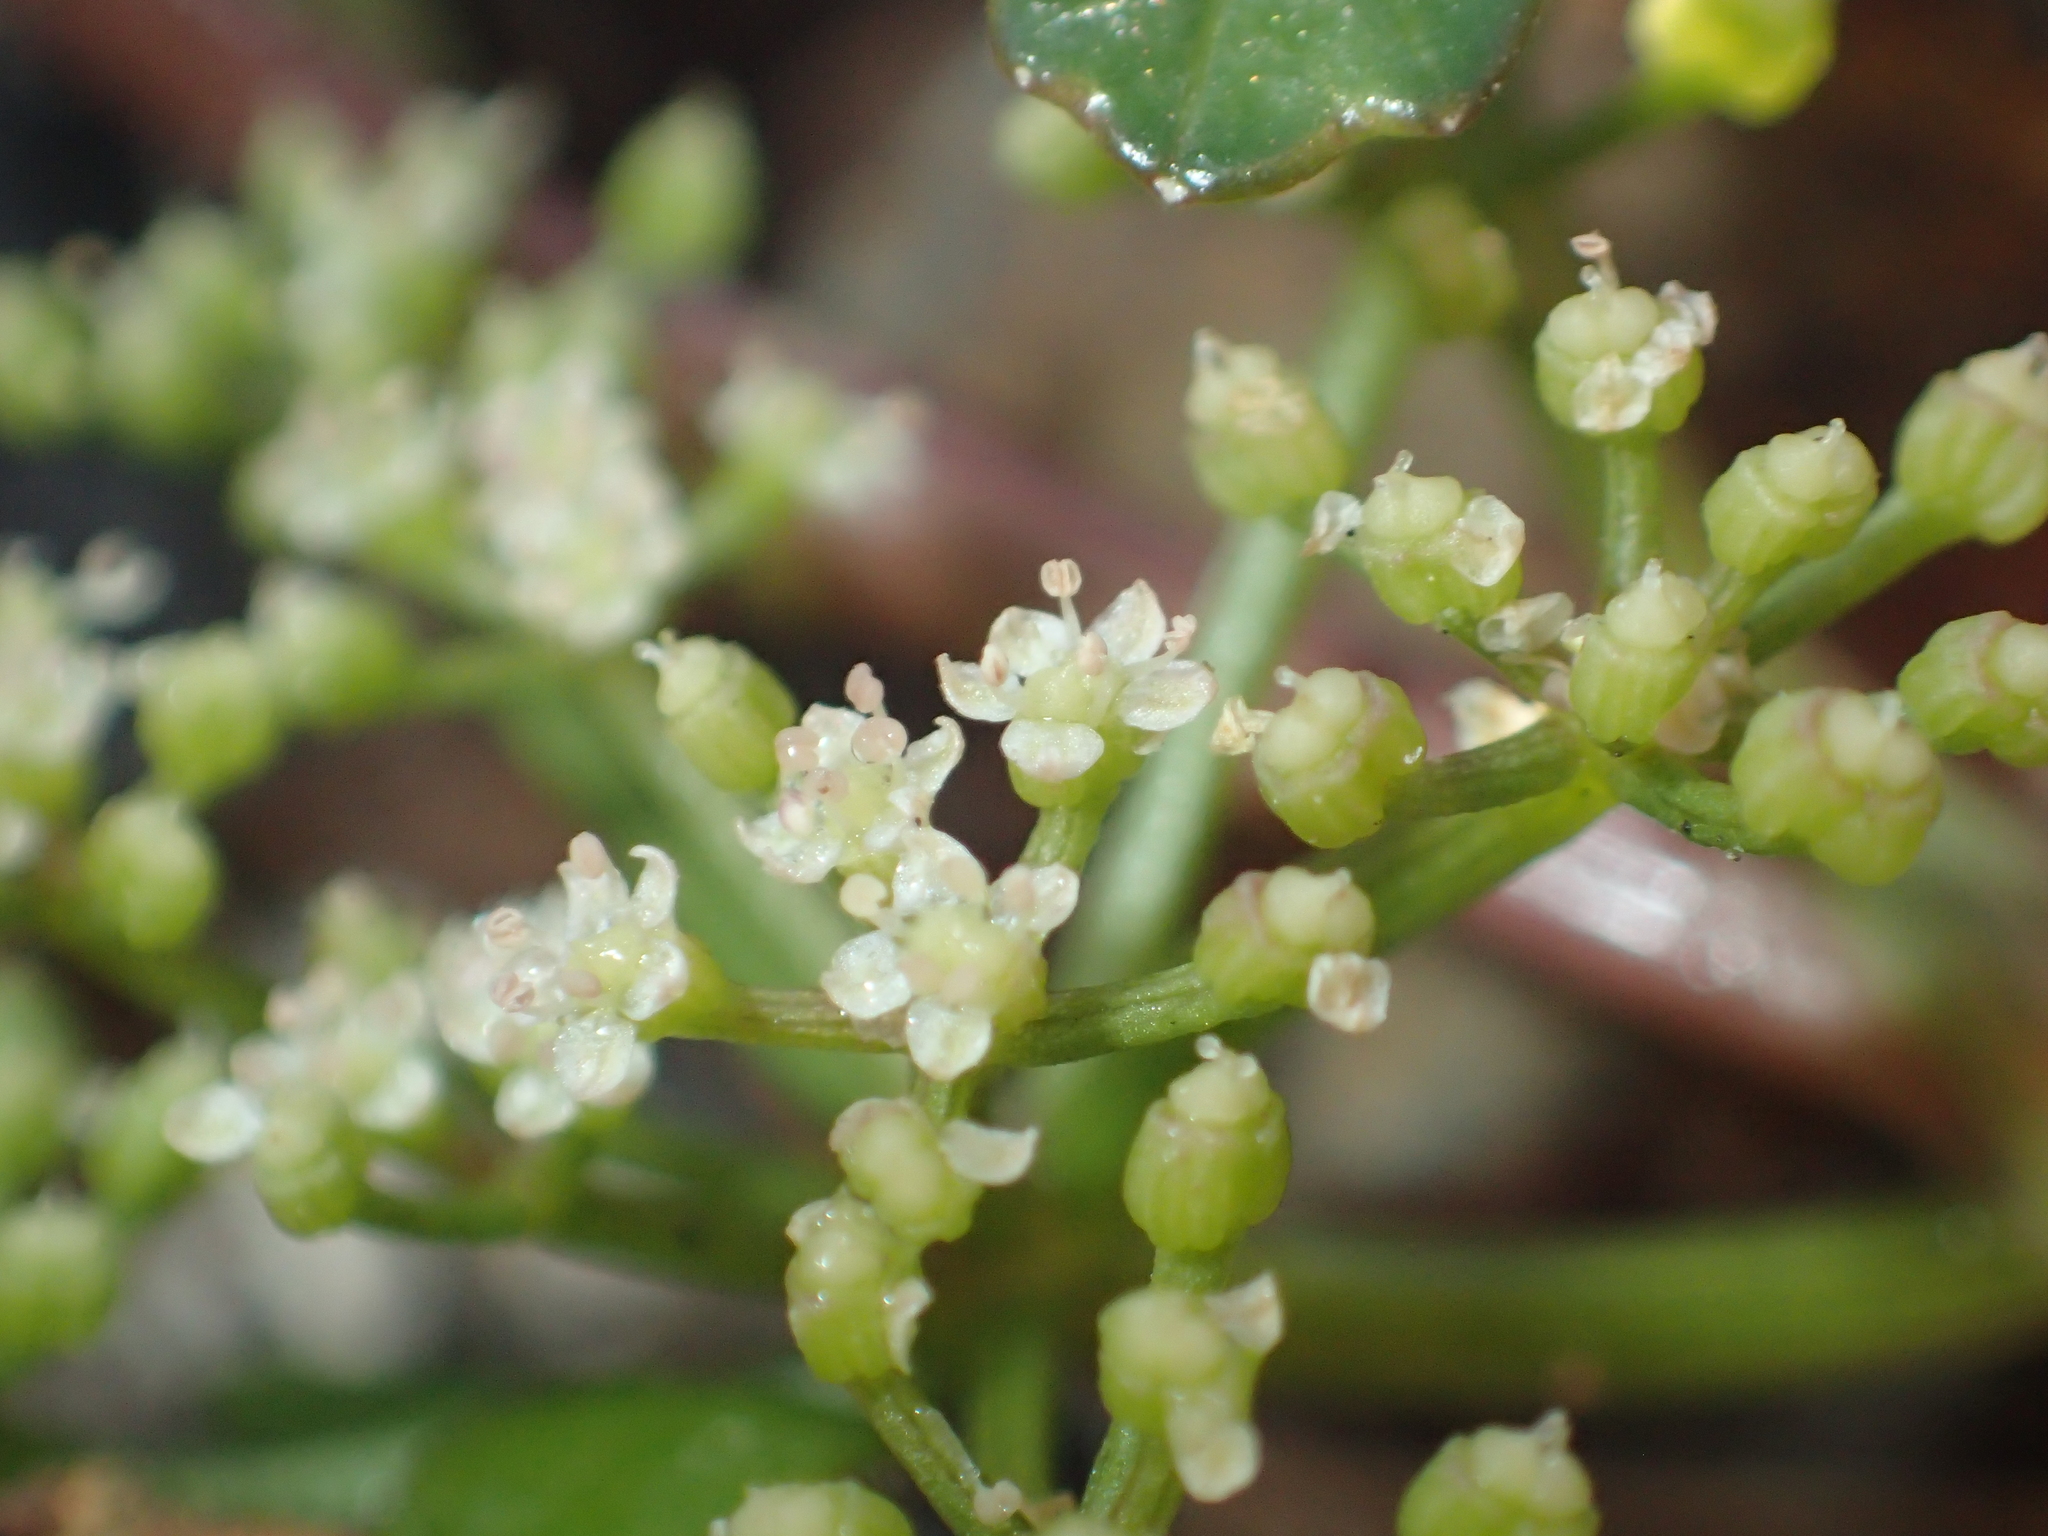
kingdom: Plantae
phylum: Tracheophyta
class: Magnoliopsida
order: Apiales
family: Apiaceae
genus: Apium
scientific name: Apium prostratum
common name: Prostrate marshwort
